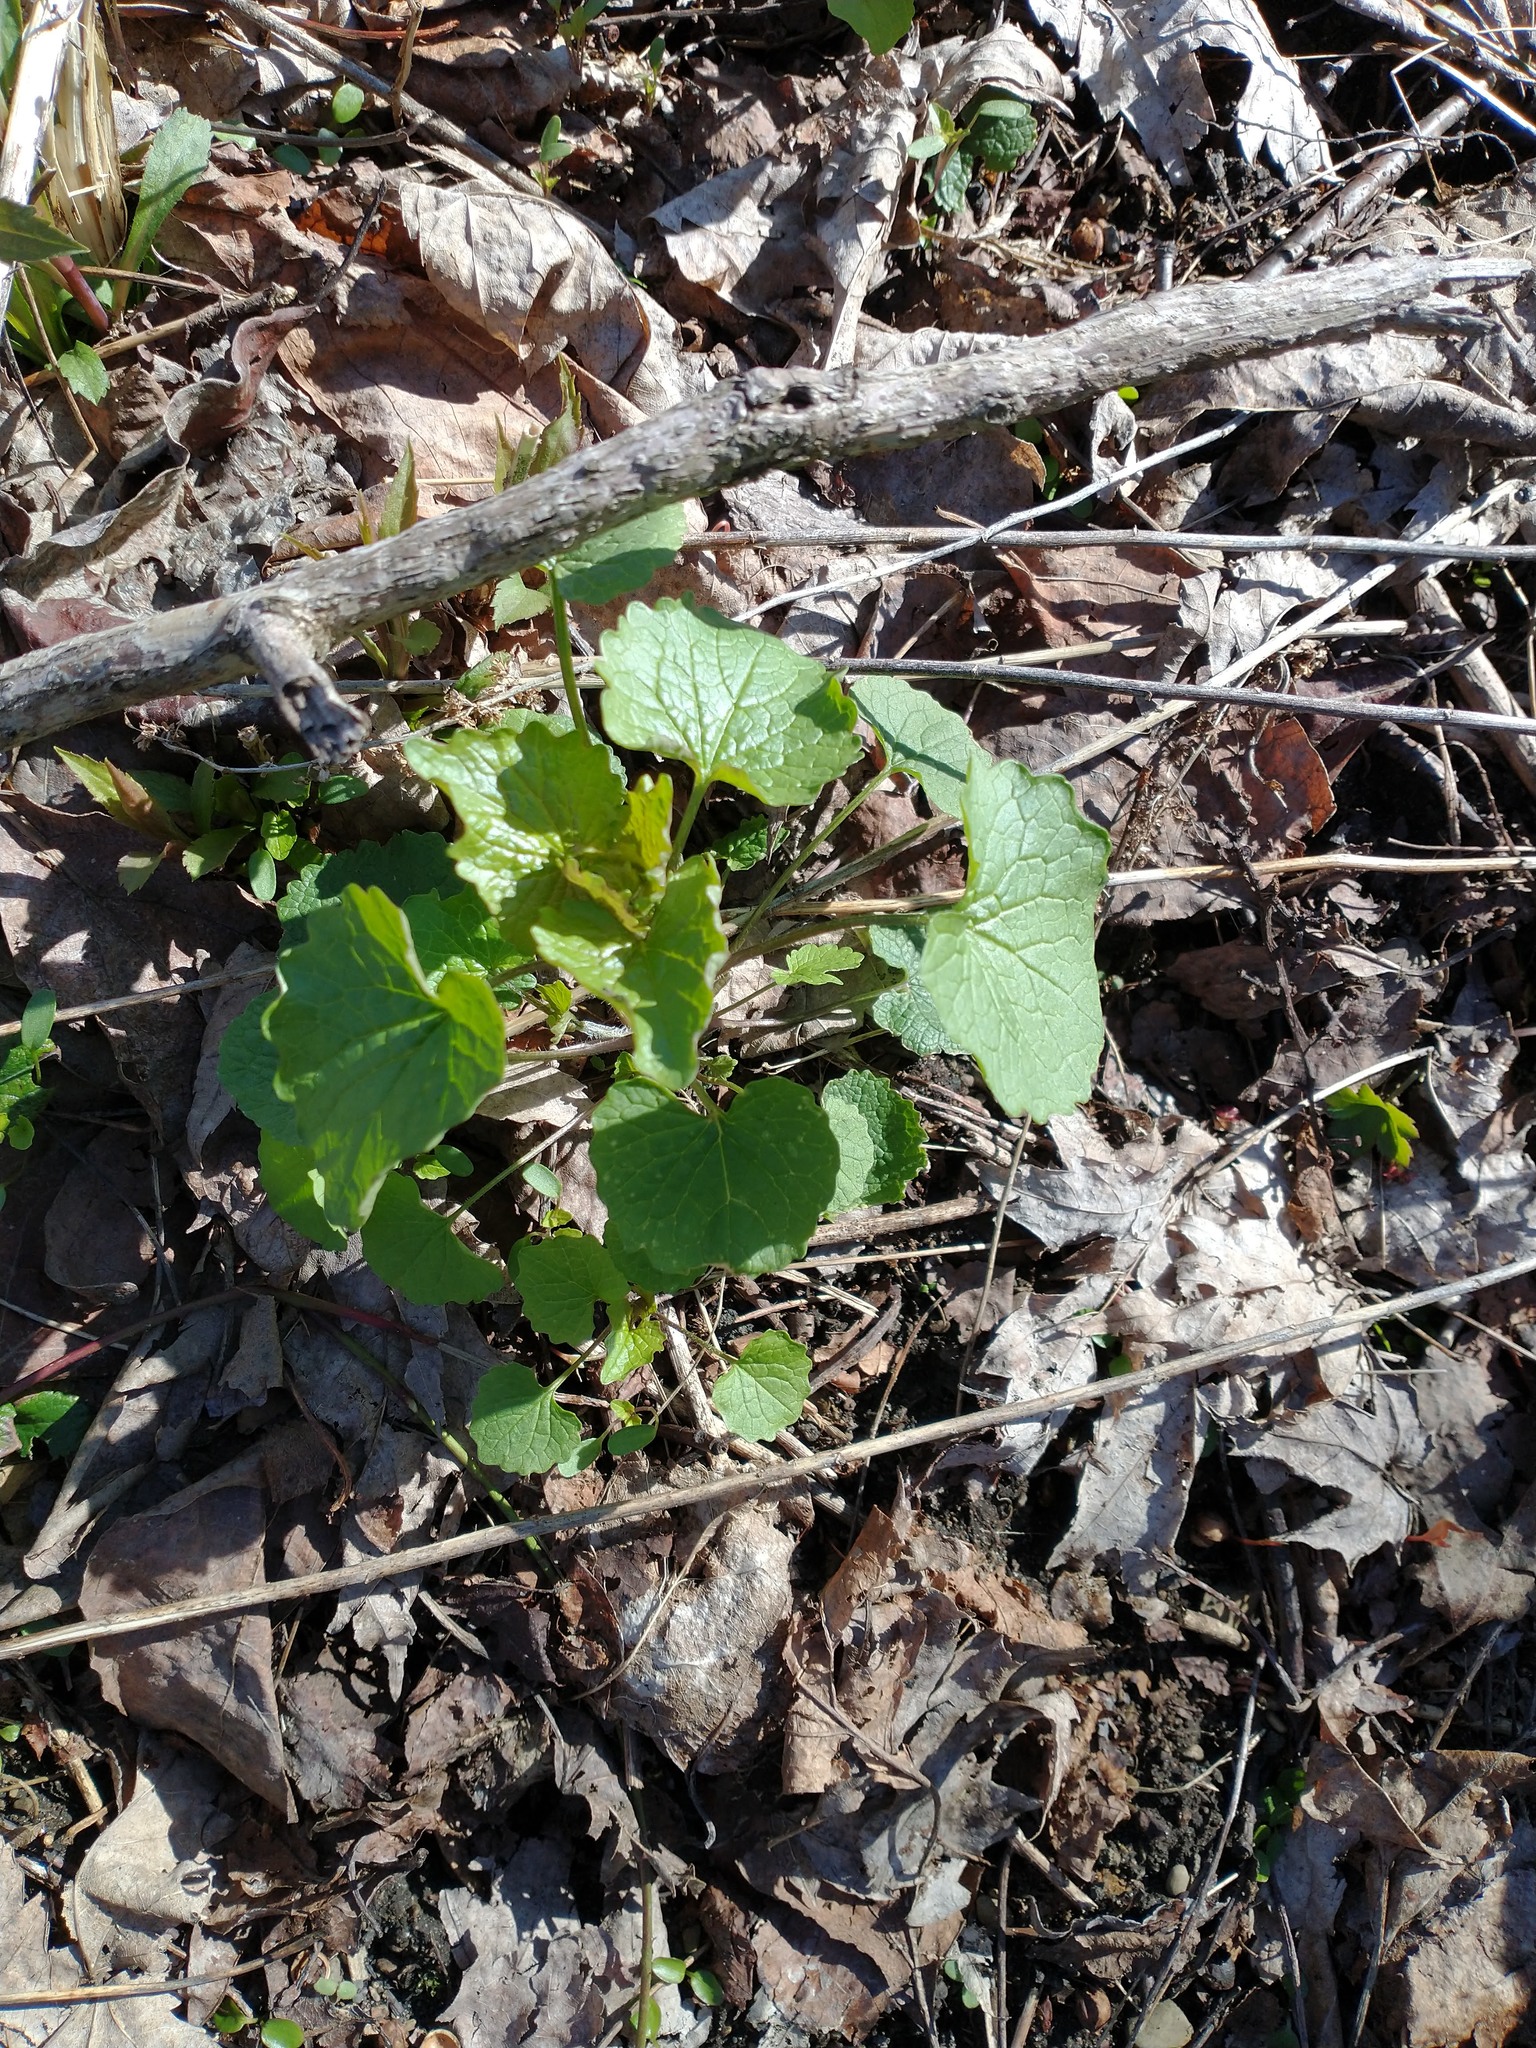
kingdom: Plantae
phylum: Tracheophyta
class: Magnoliopsida
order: Brassicales
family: Brassicaceae
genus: Alliaria
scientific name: Alliaria petiolata
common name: Garlic mustard
